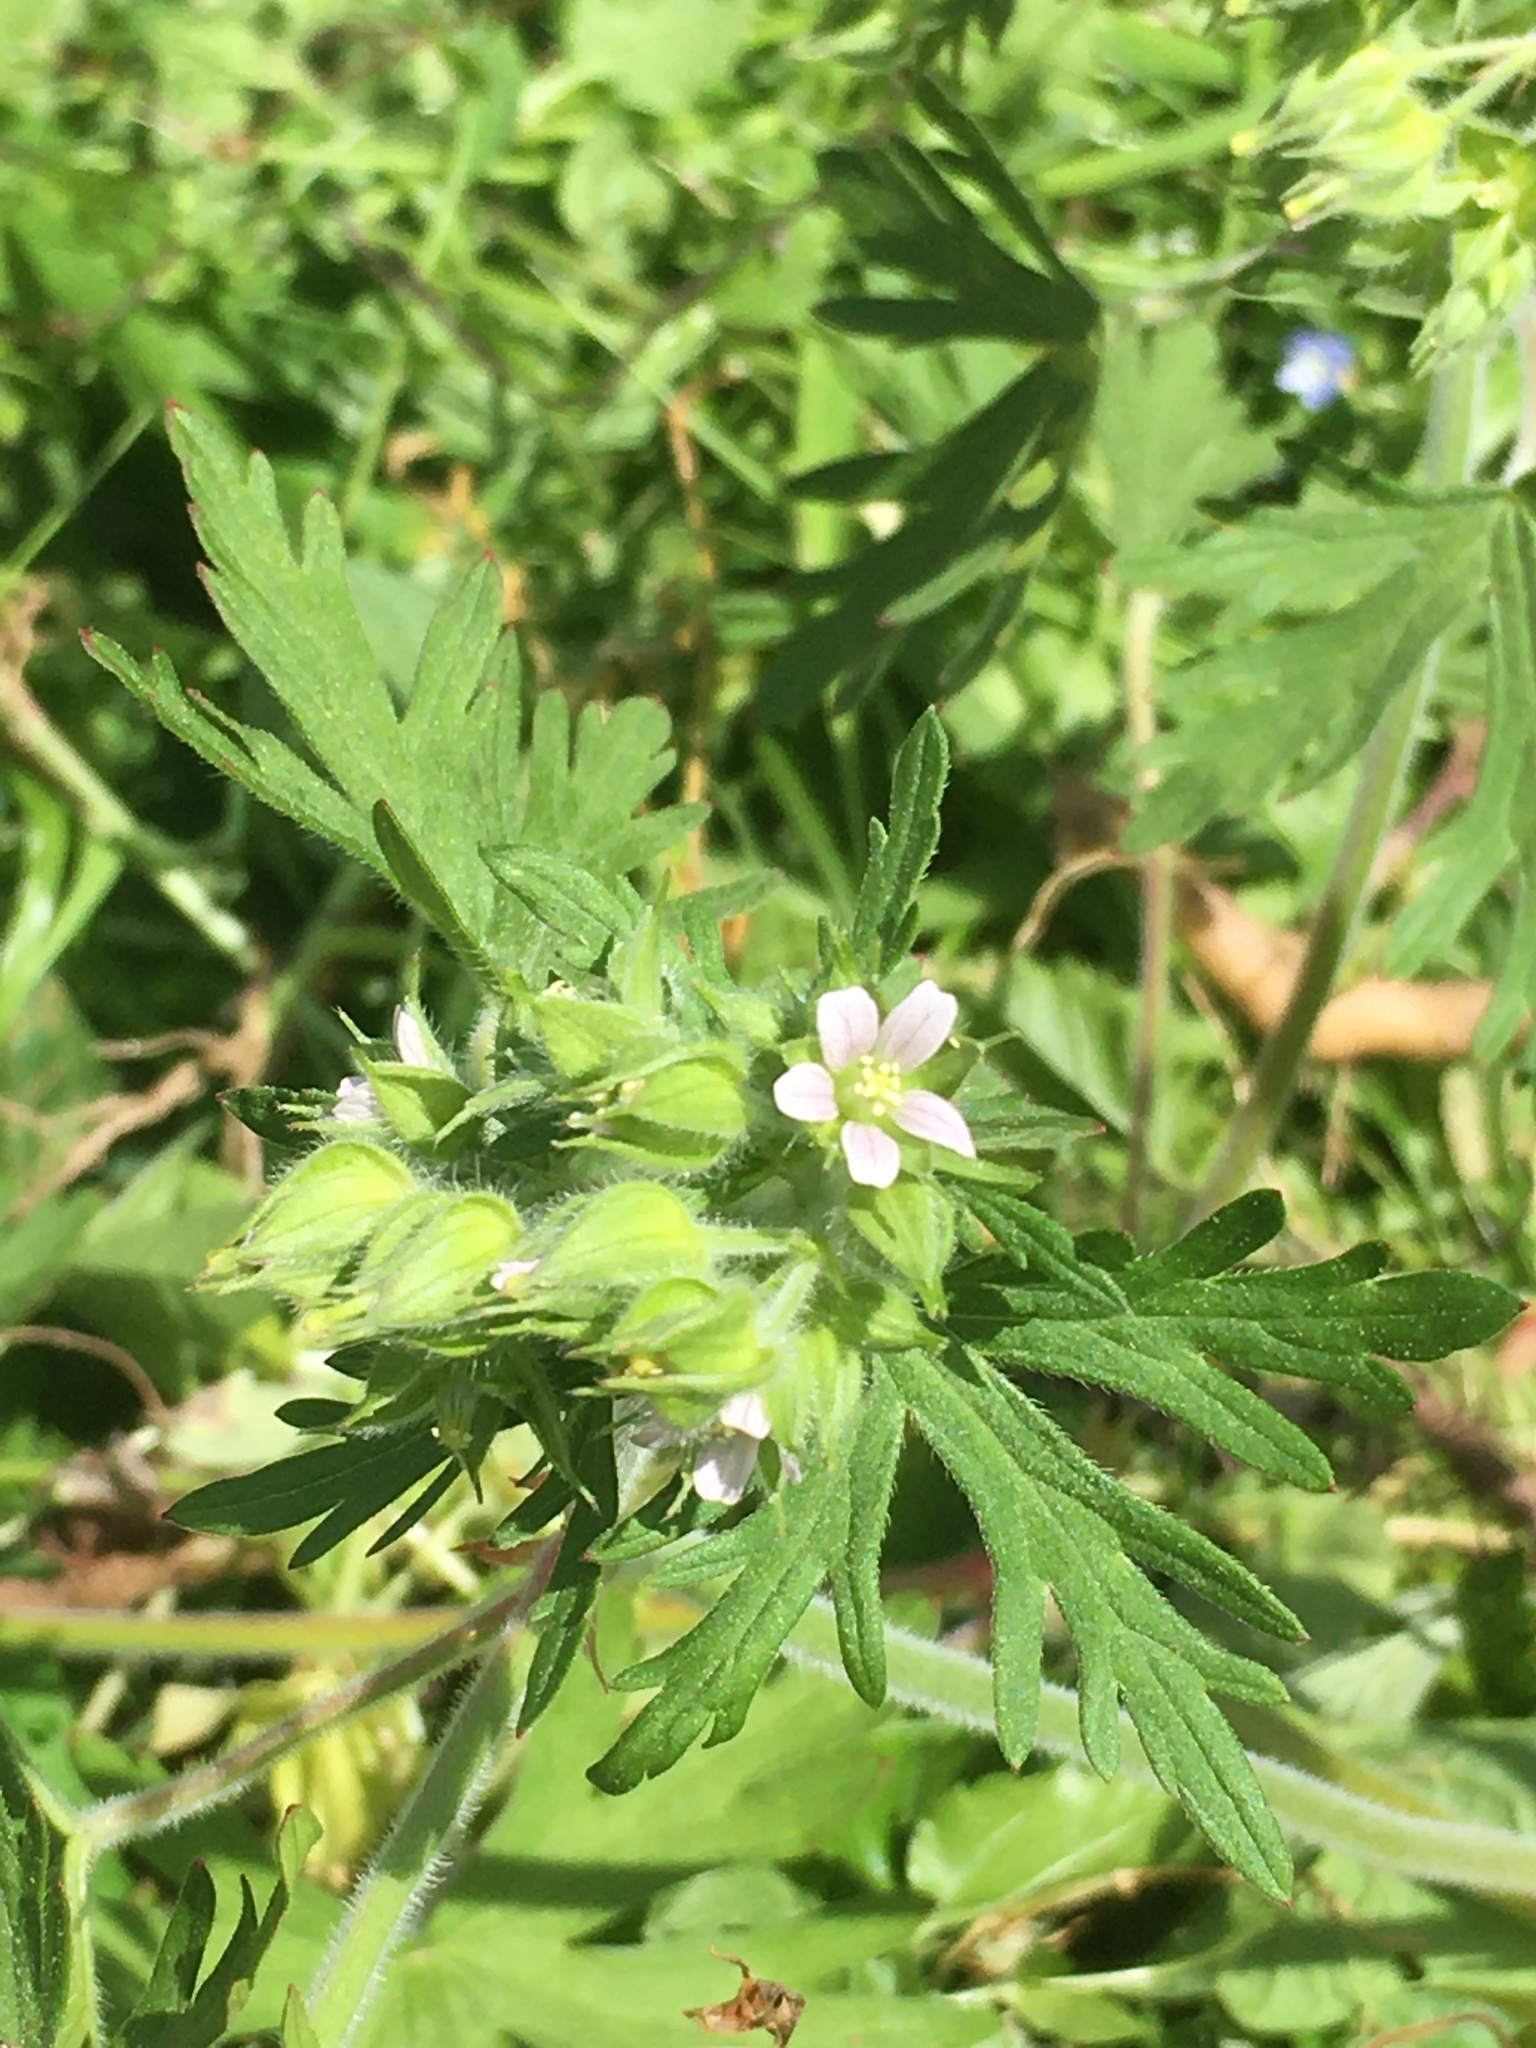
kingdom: Plantae
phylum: Tracheophyta
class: Magnoliopsida
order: Geraniales
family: Geraniaceae
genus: Geranium
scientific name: Geranium carolinianum
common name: Carolina crane's-bill
